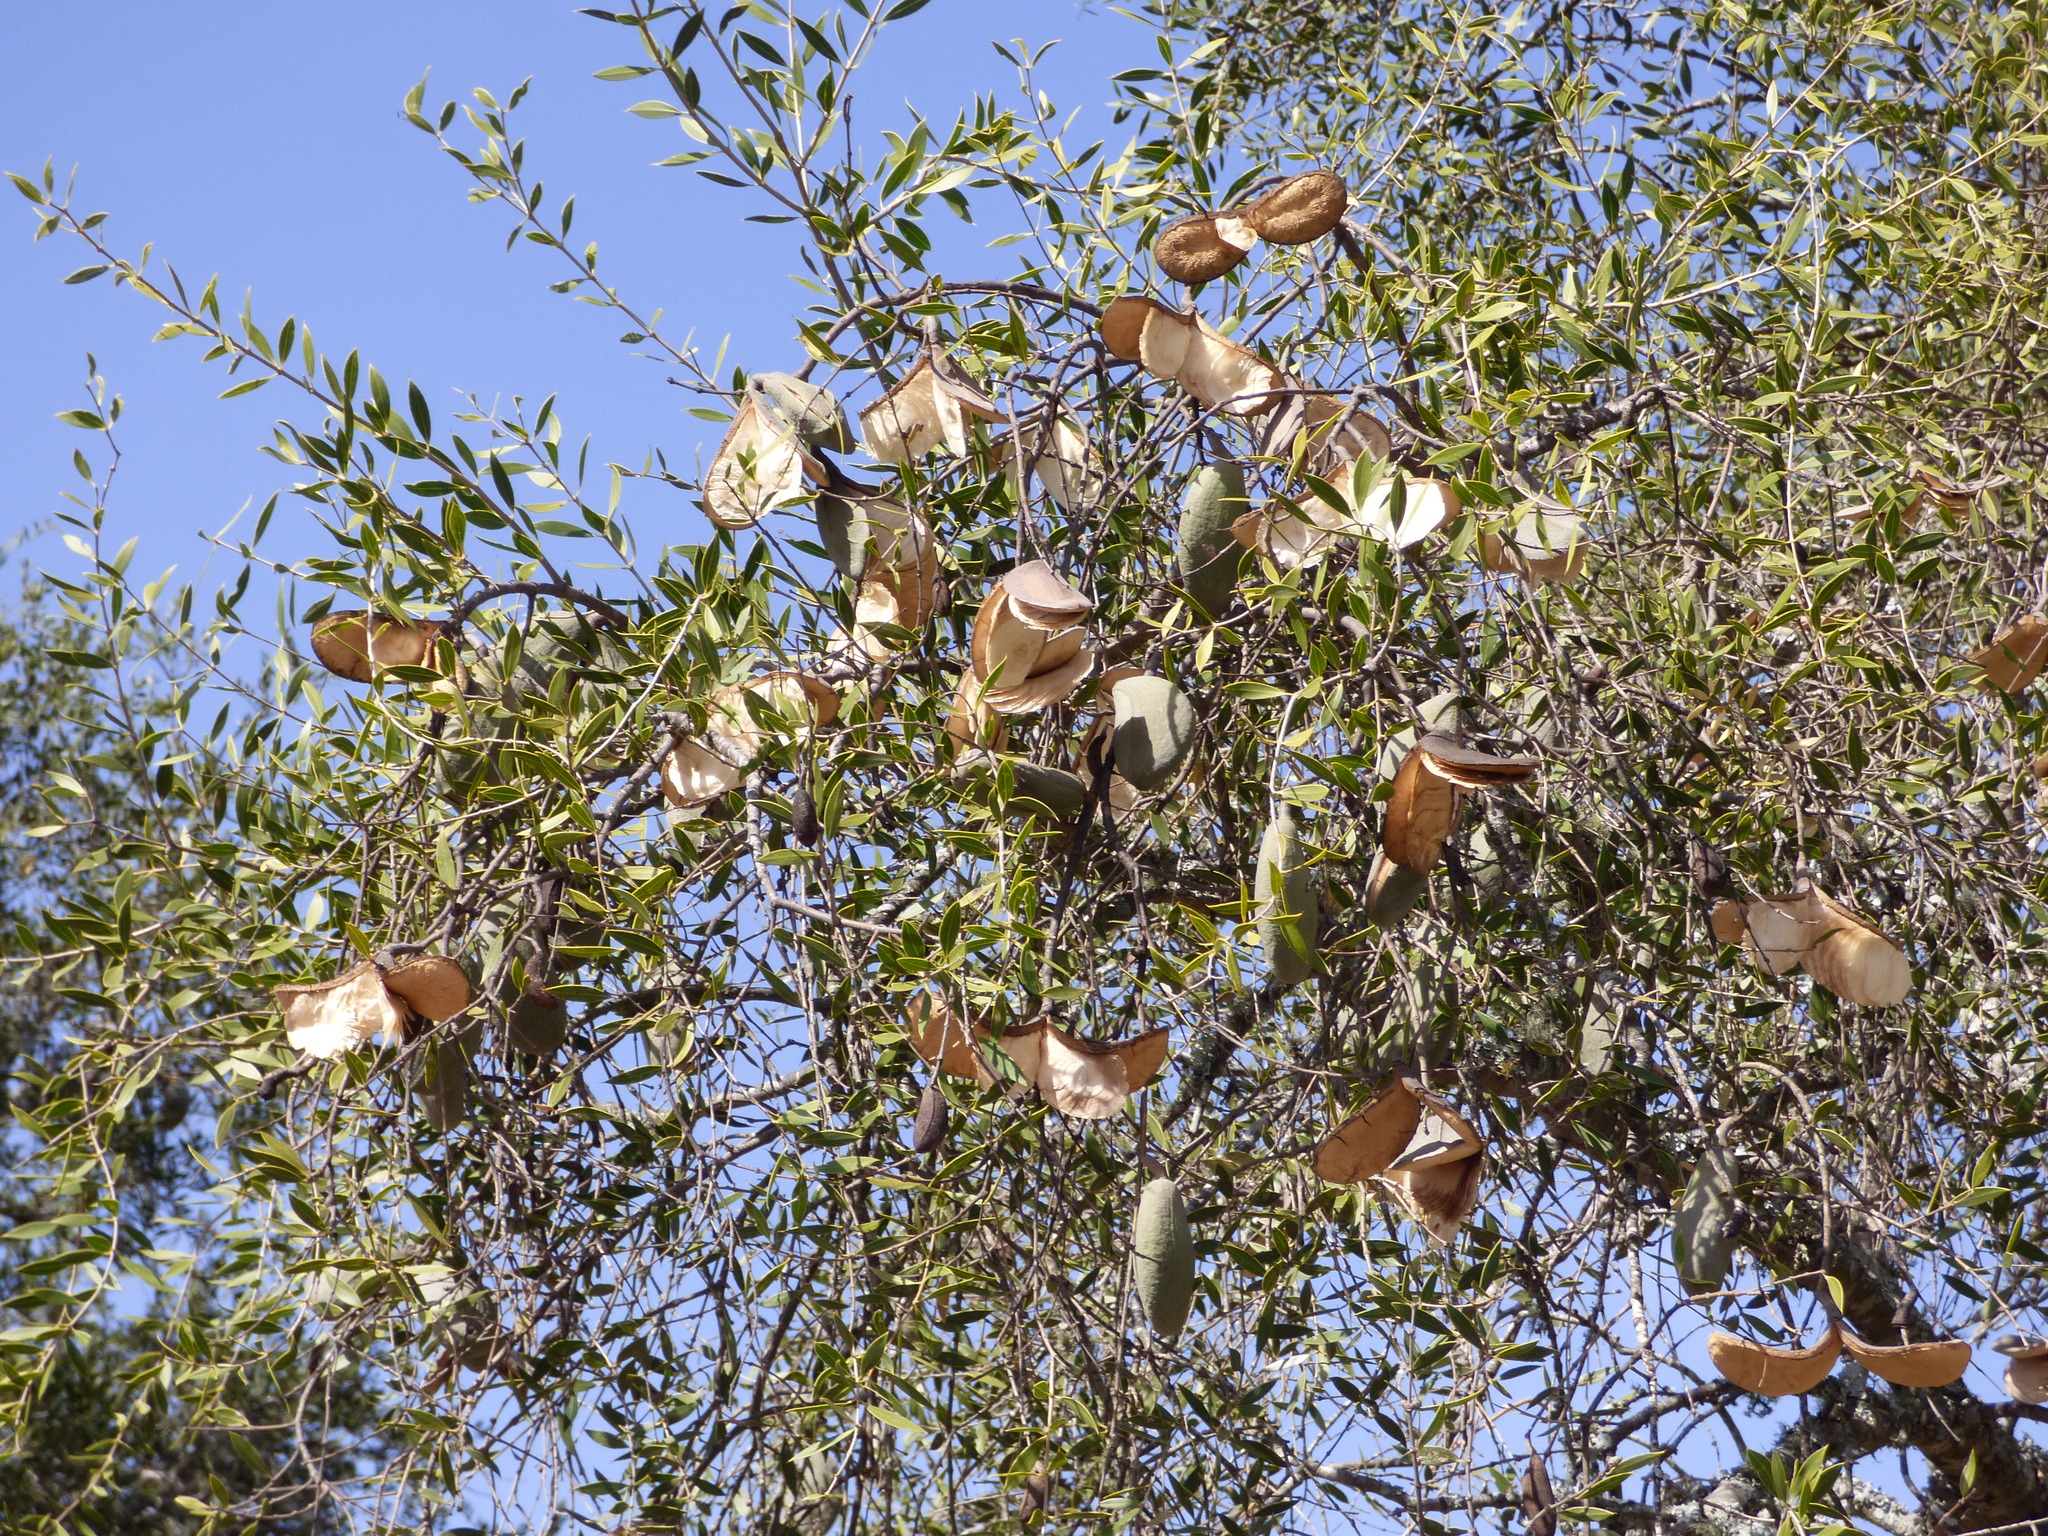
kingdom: Plantae
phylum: Tracheophyta
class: Magnoliopsida
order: Gentianales
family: Apocynaceae
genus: Aspidosperma
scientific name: Aspidosperma quebracho-blanco
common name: White quebracho
